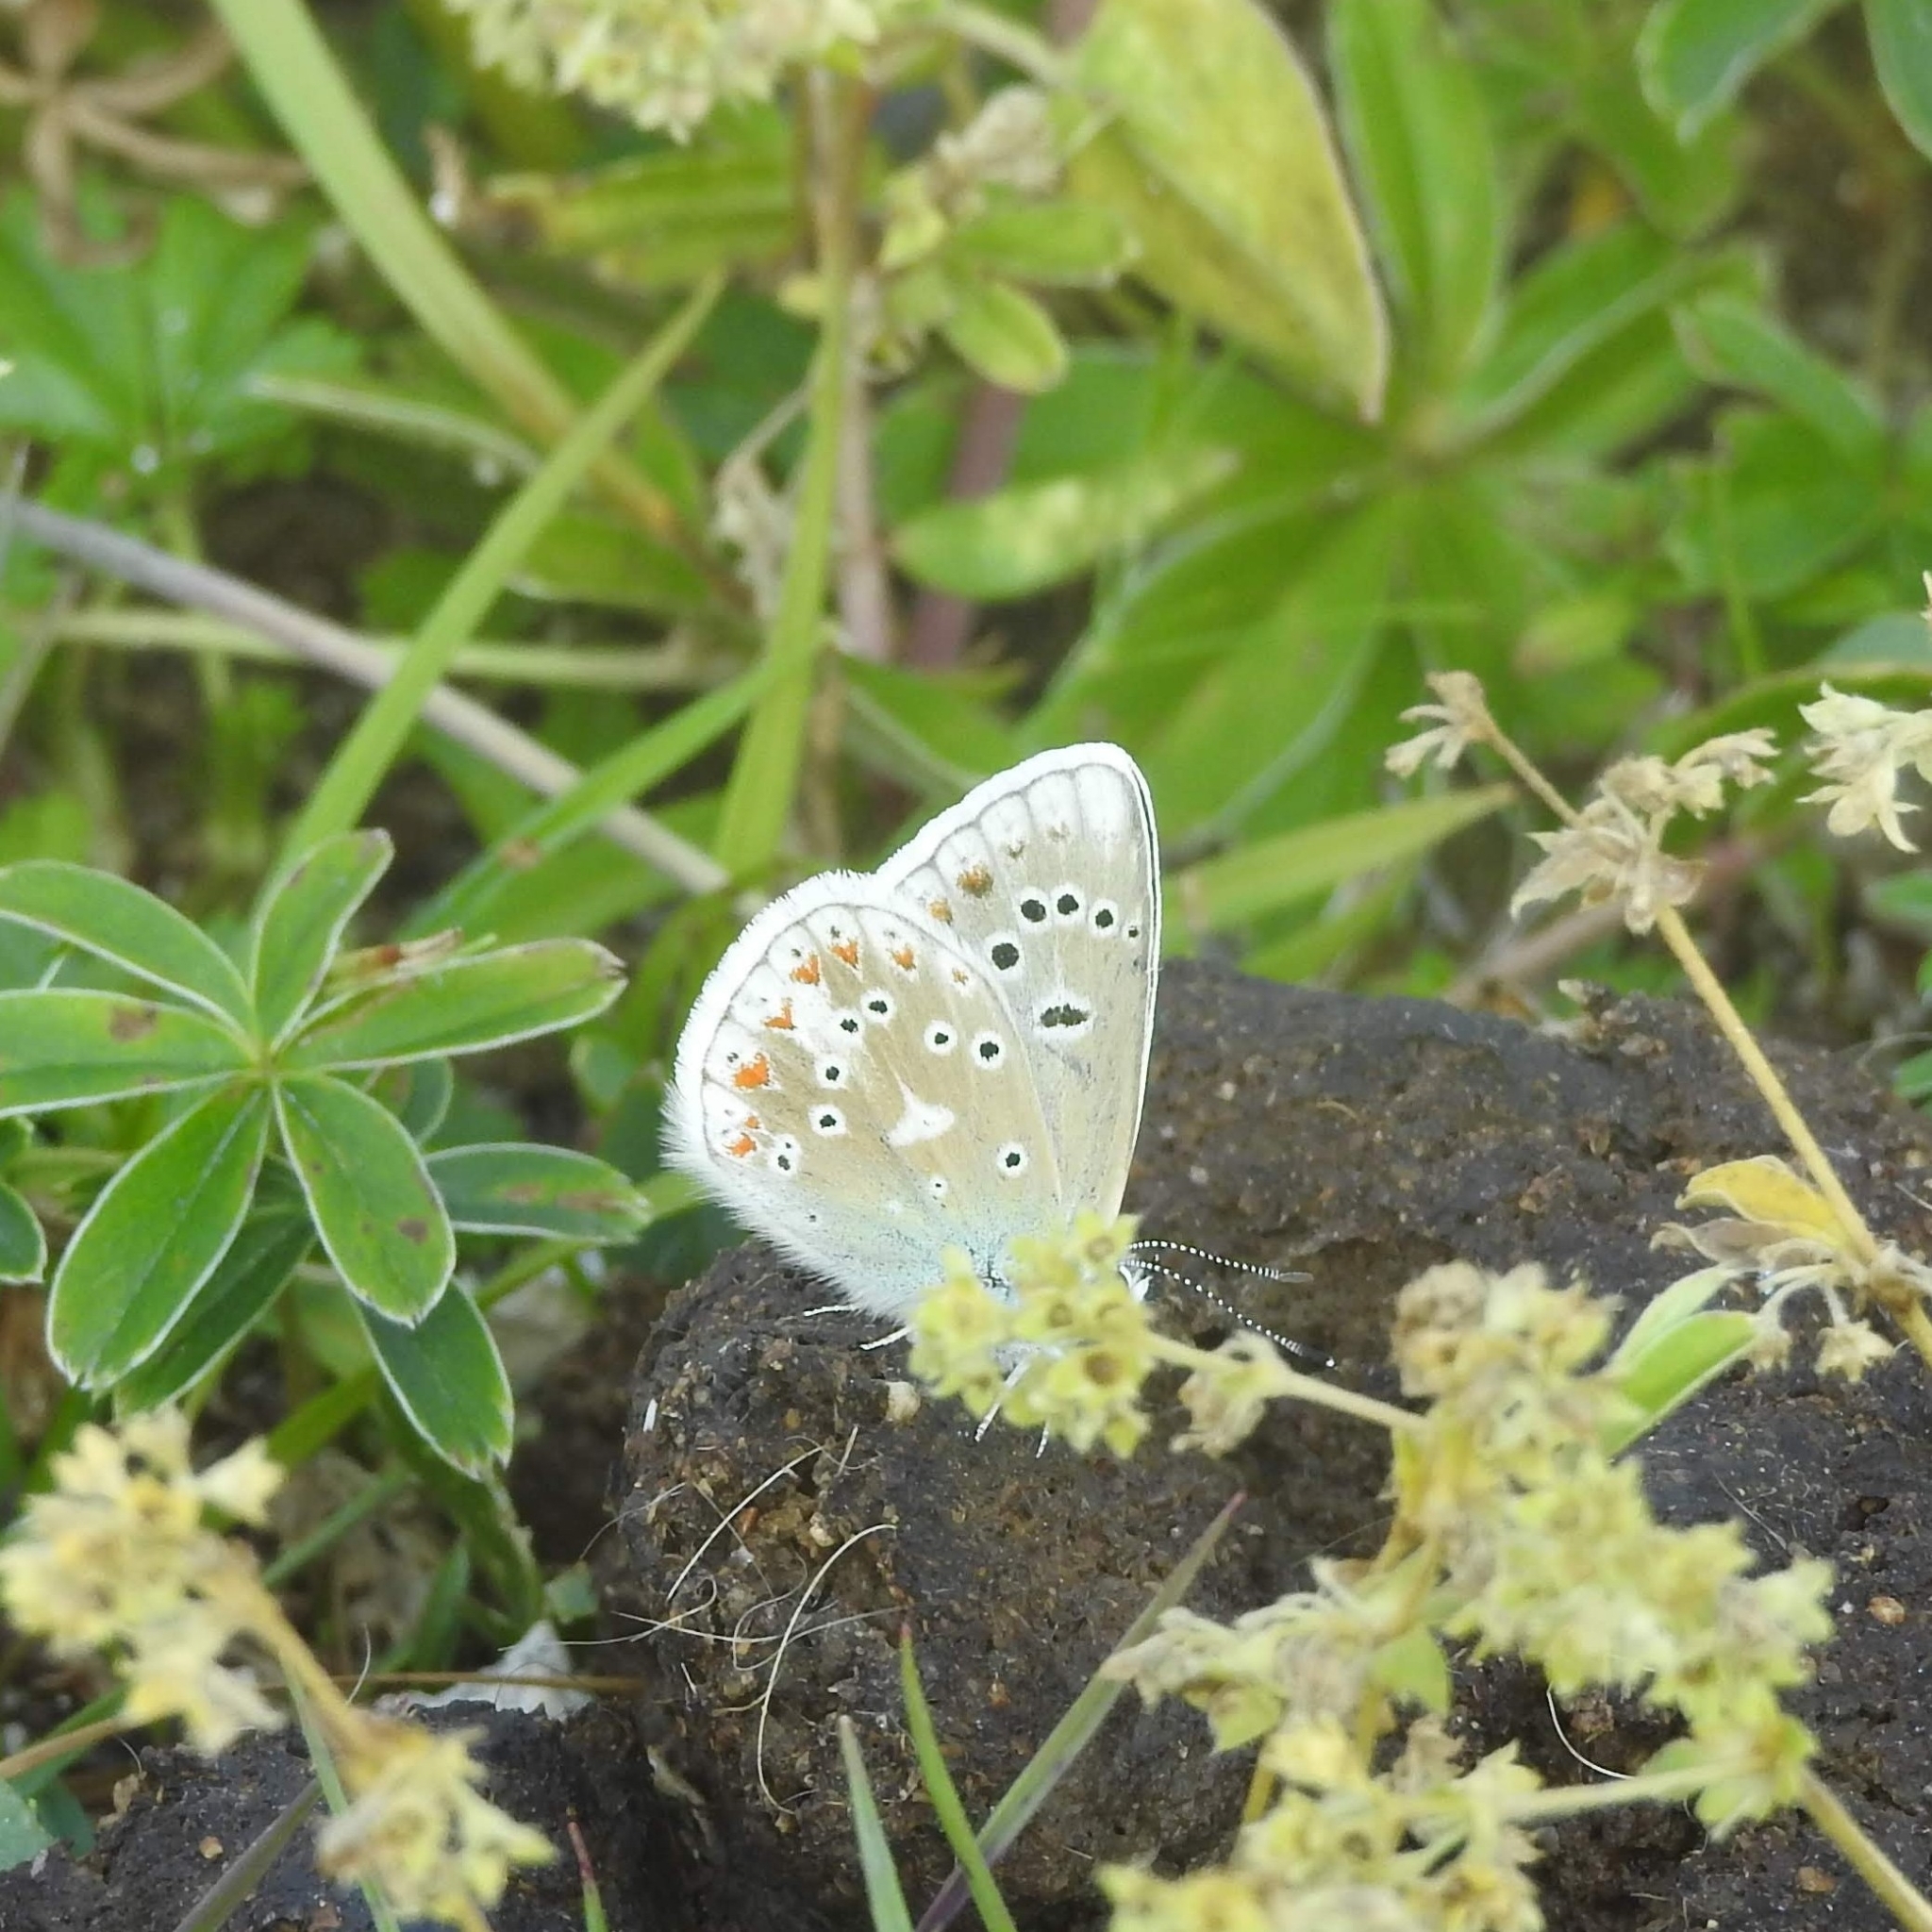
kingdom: Animalia
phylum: Arthropoda
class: Insecta
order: Lepidoptera
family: Lycaenidae
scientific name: Lycaenidae
